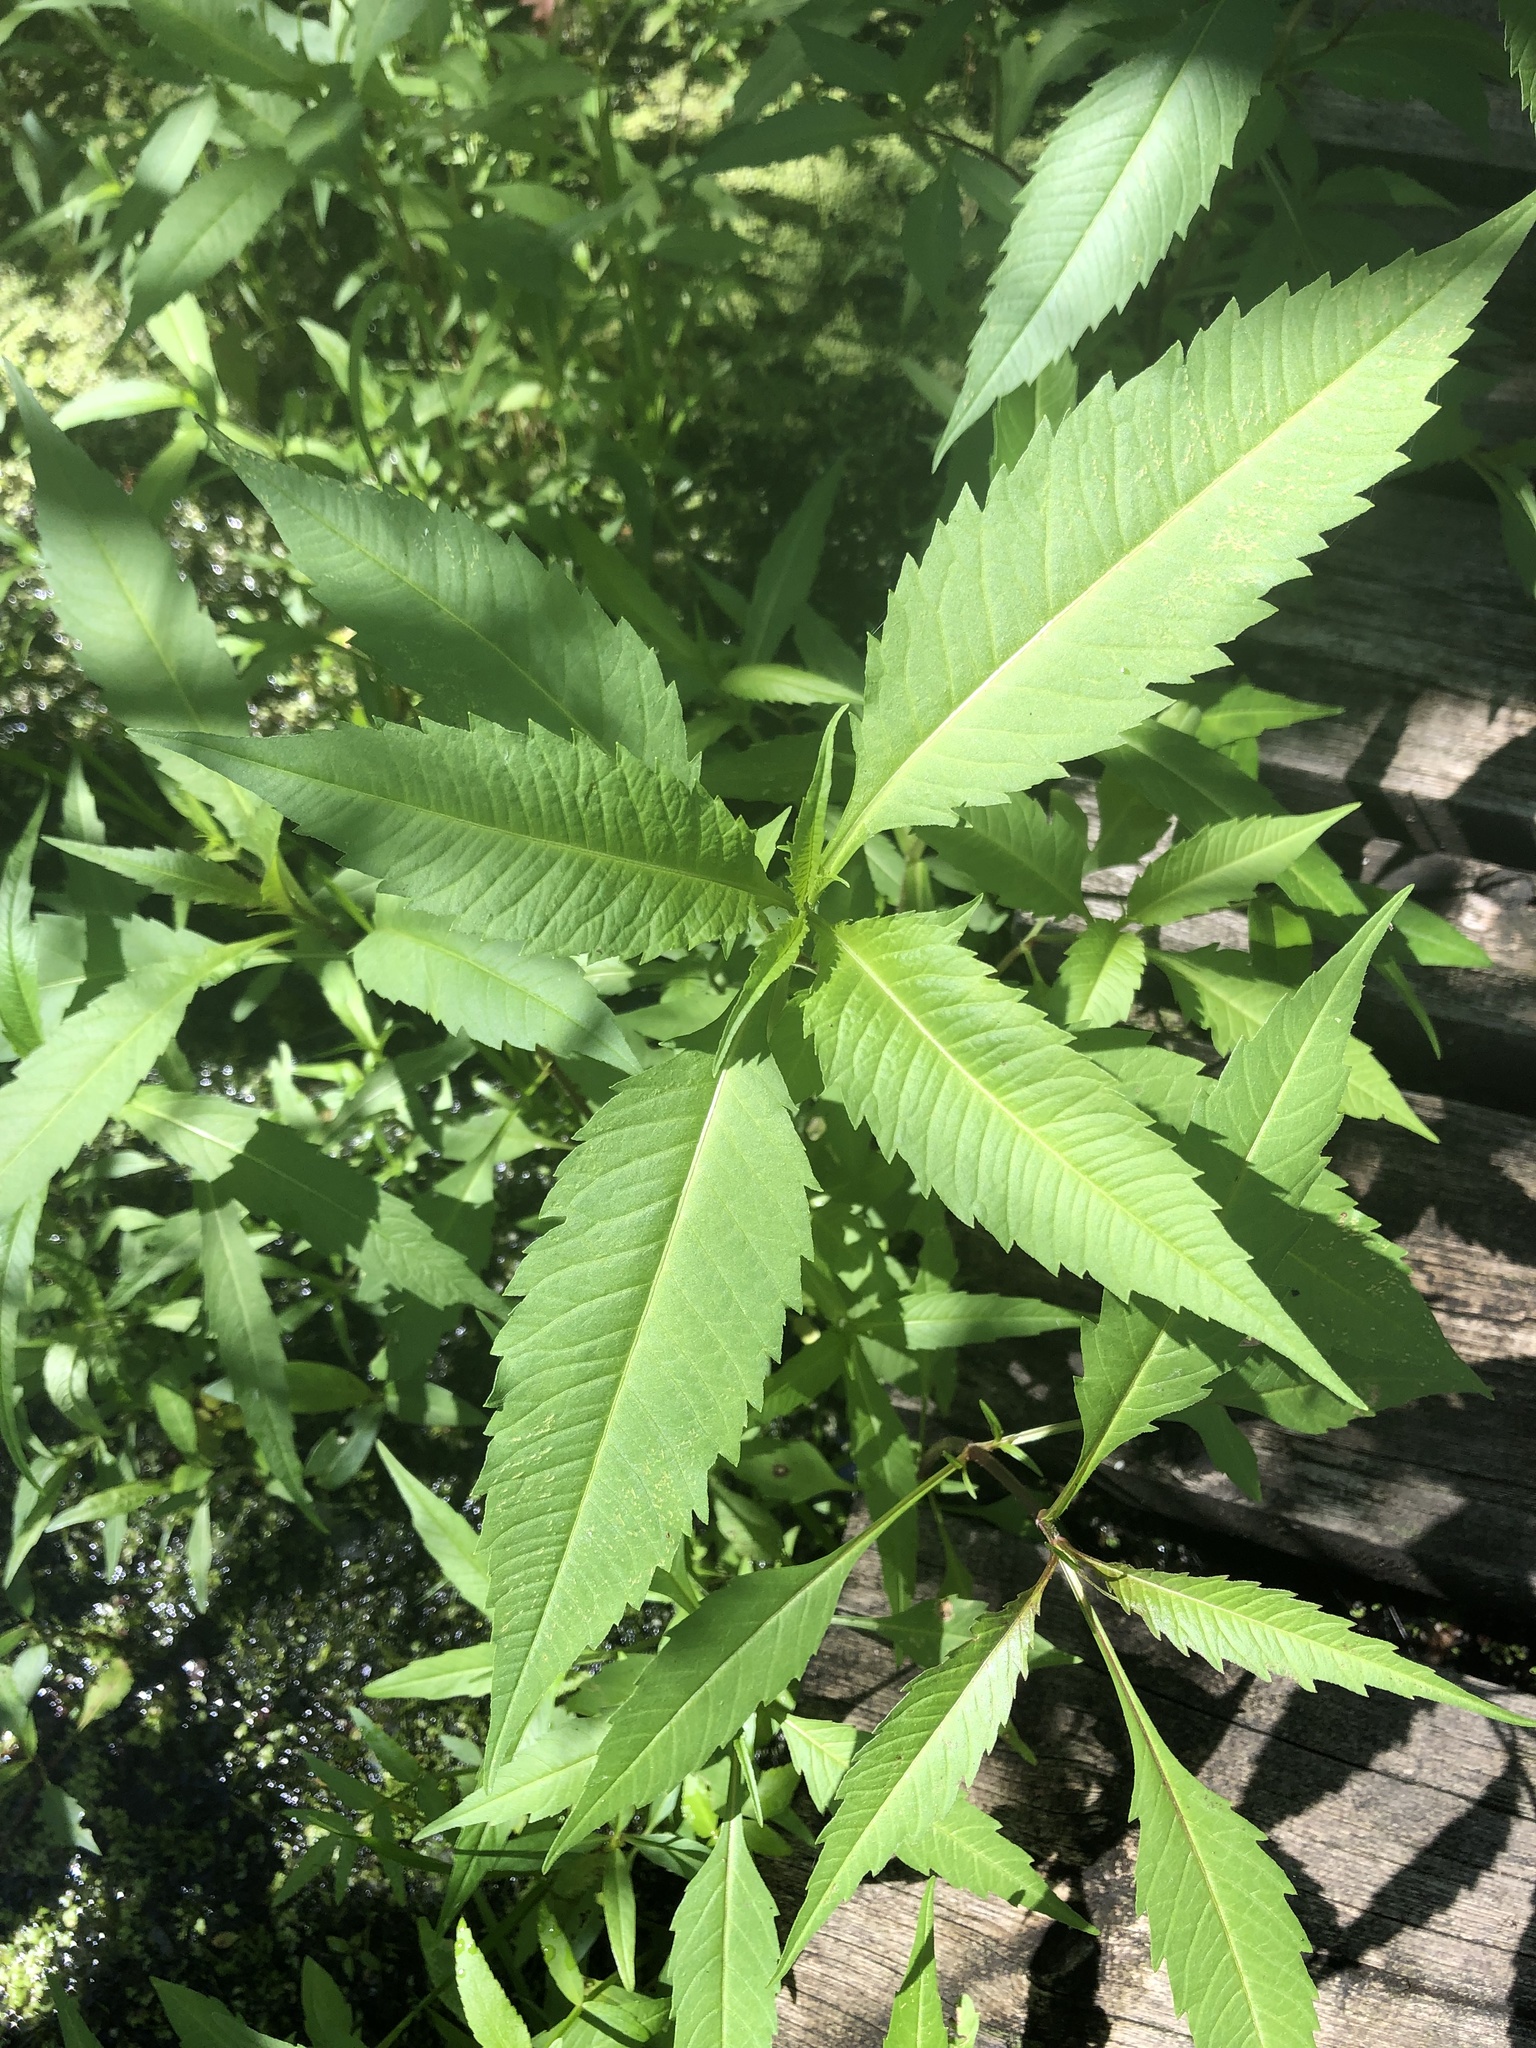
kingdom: Plantae
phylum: Tracheophyta
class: Magnoliopsida
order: Asterales
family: Asteraceae
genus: Bidens
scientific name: Bidens connata
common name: London bur-marigold
